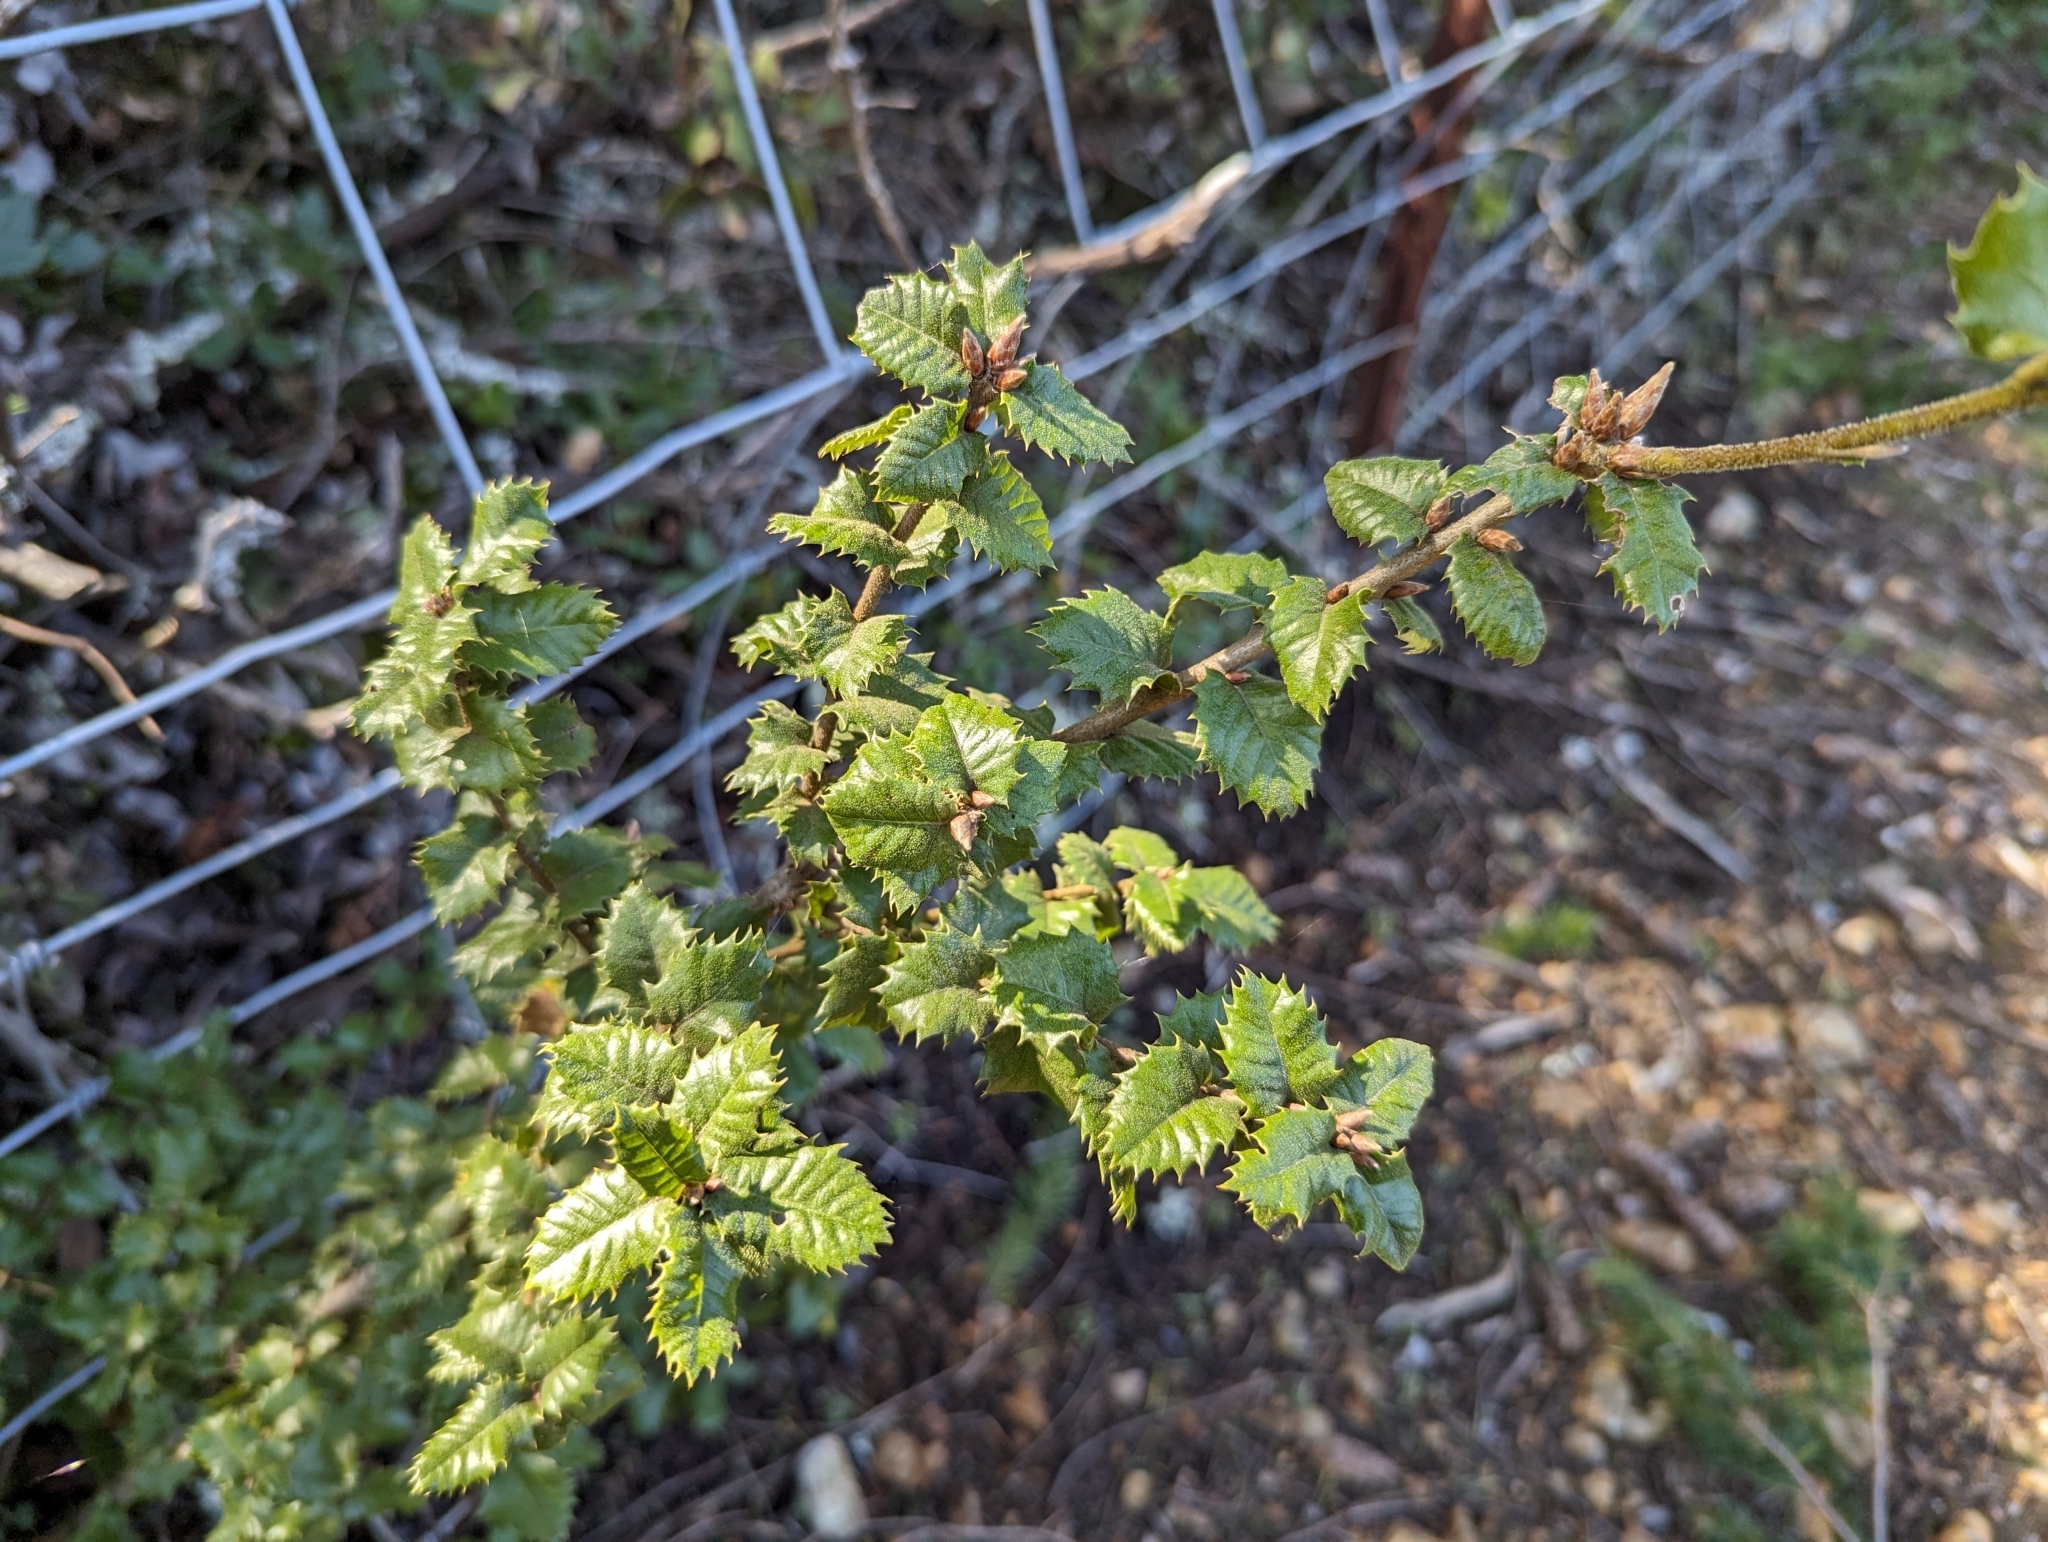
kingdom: Plantae
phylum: Tracheophyta
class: Magnoliopsida
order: Fagales
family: Fagaceae
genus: Quercus
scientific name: Quercus chrysolepis
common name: Canyon live oak
